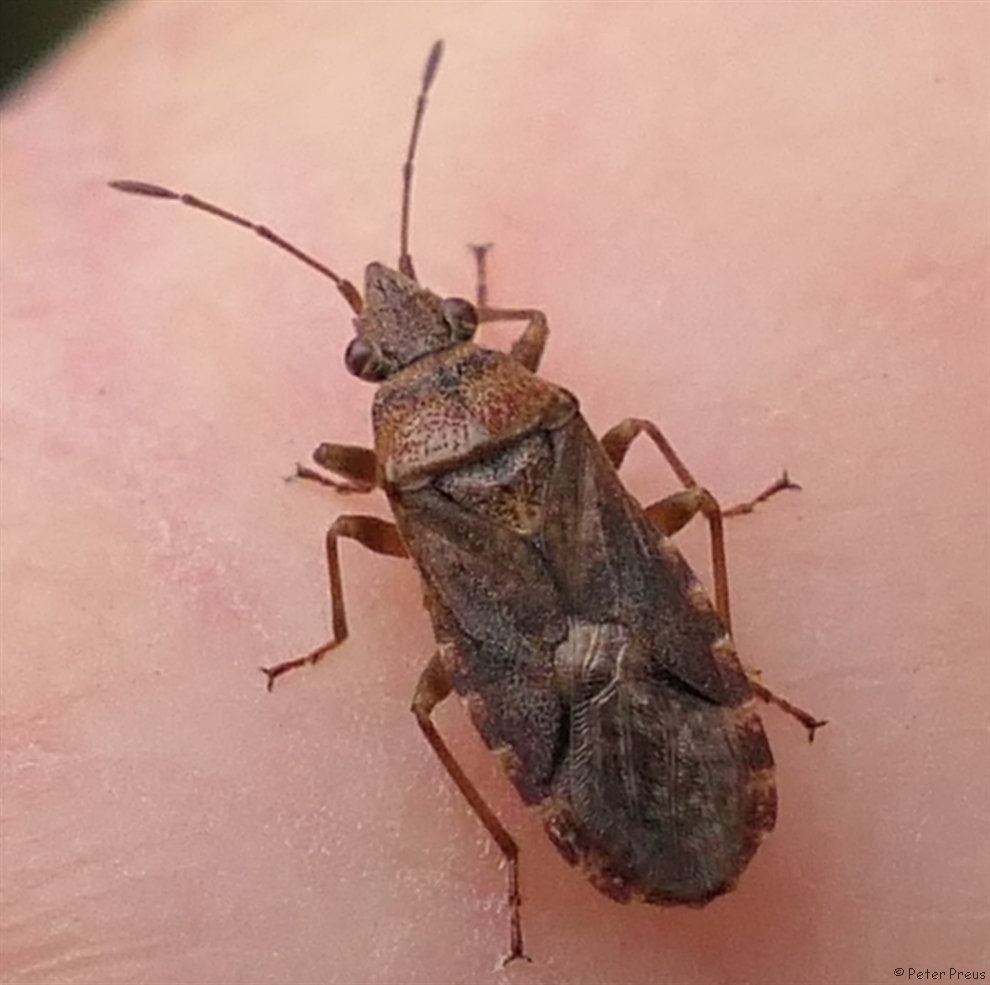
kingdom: Animalia
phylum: Arthropoda
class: Insecta
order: Hemiptera
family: Lygaeidae
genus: Orsillus
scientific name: Orsillus depressus
